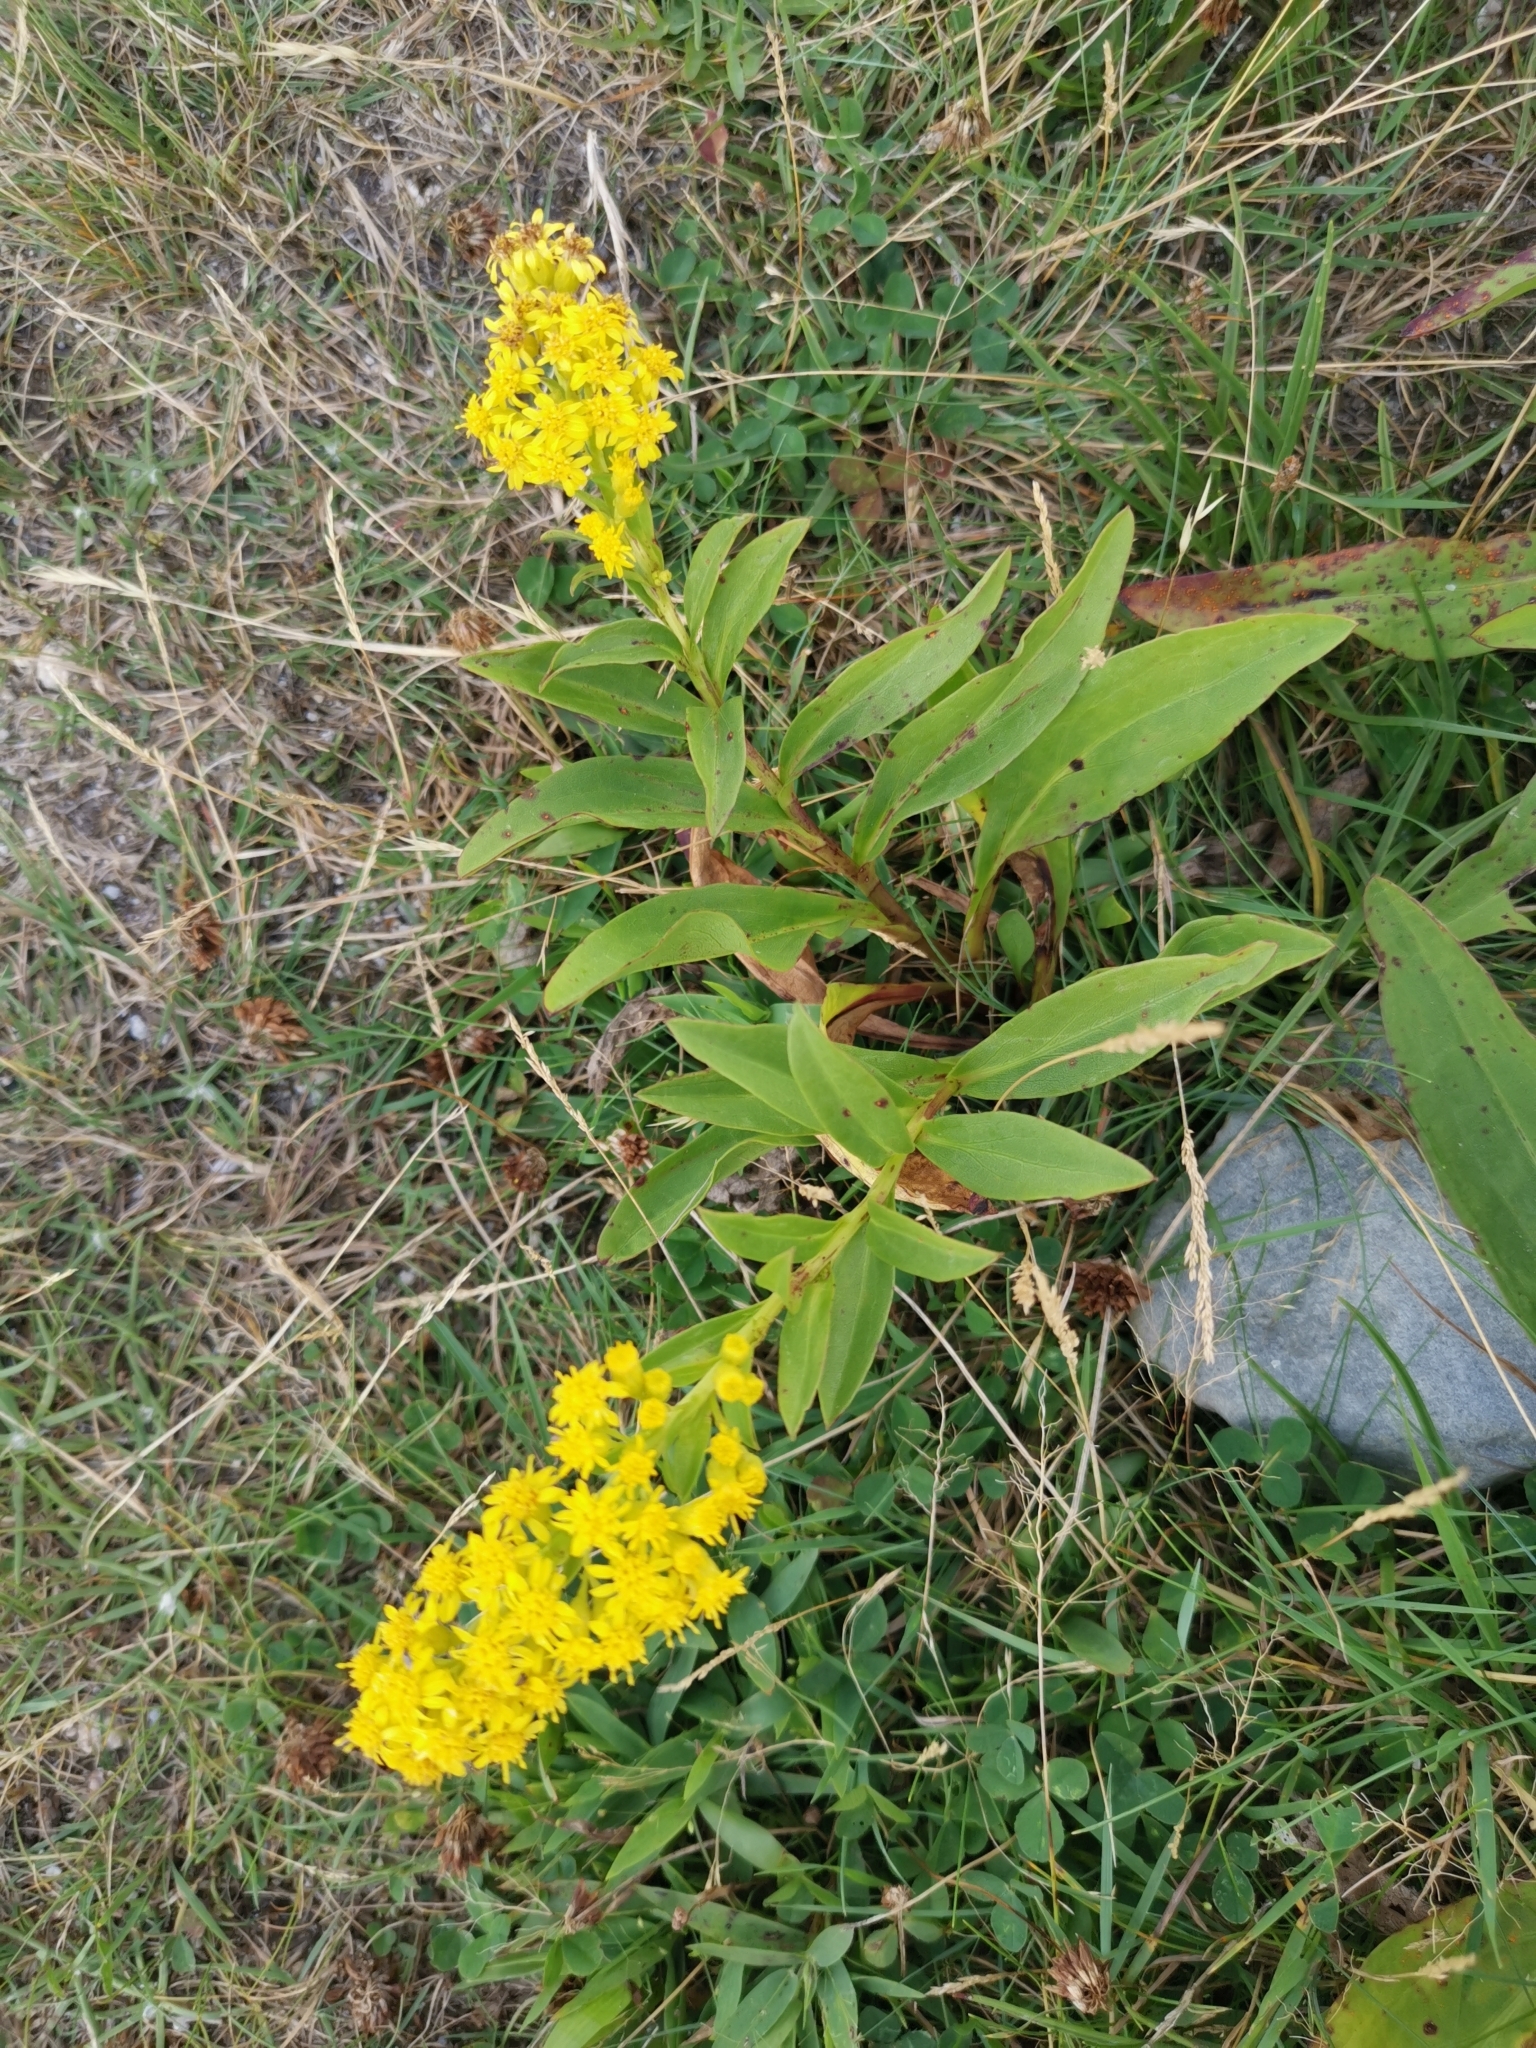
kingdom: Plantae
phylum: Tracheophyta
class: Magnoliopsida
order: Asterales
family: Asteraceae
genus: Solidago
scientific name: Solidago sempervirens
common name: Salt-marsh goldenrod
